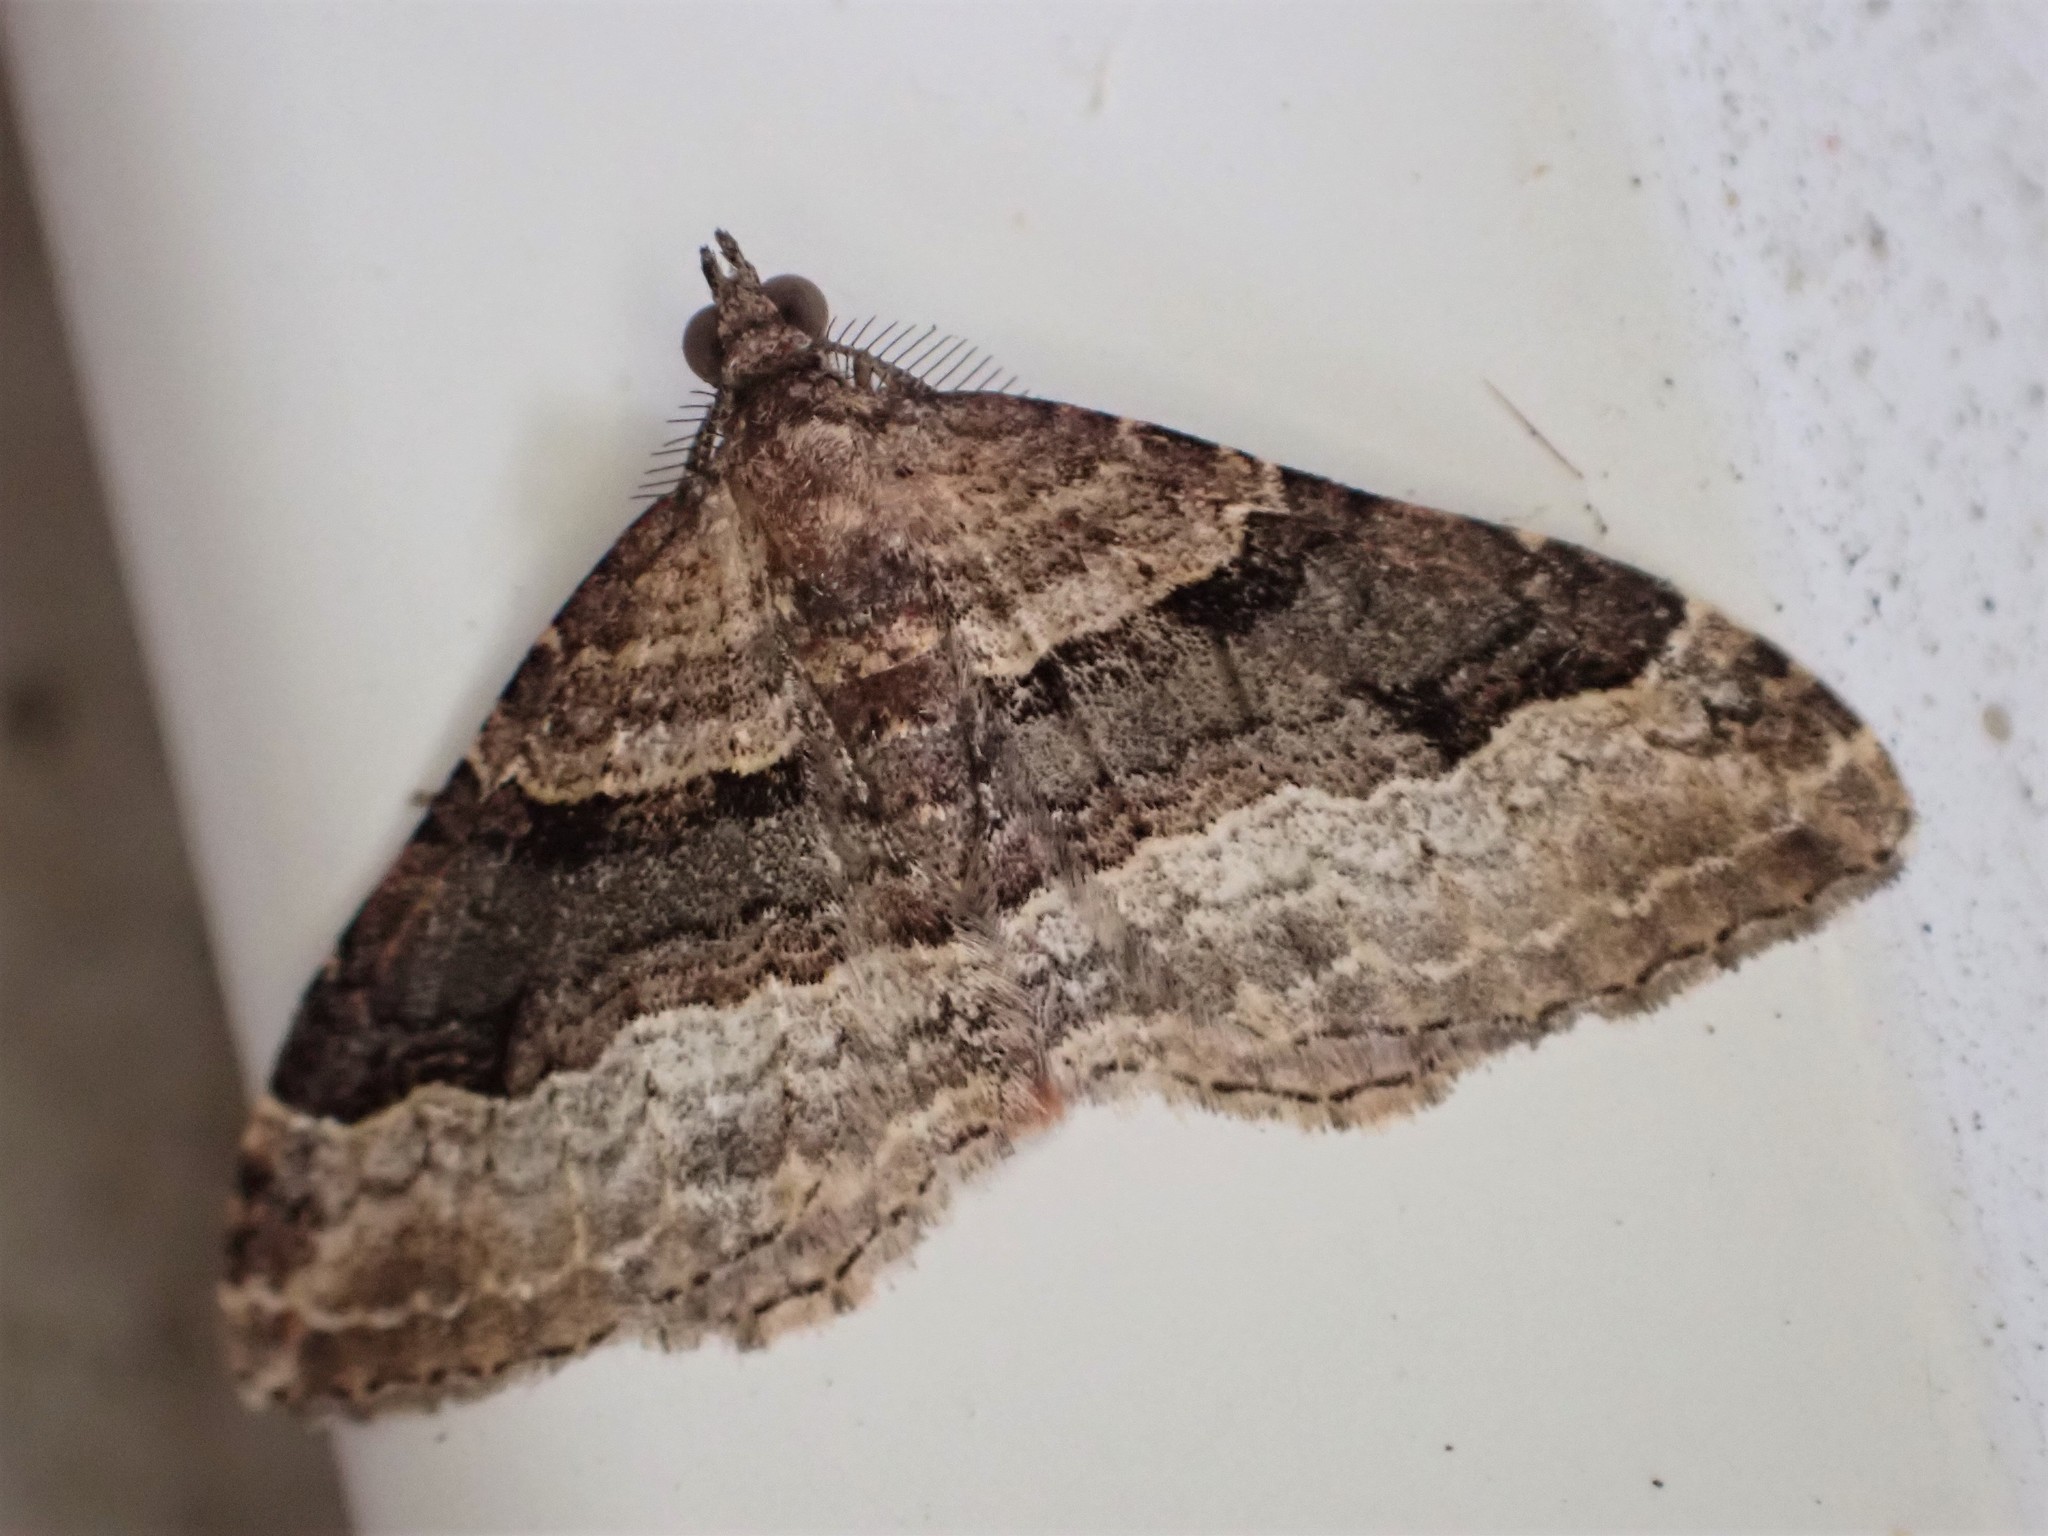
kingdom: Animalia
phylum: Arthropoda
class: Insecta
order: Lepidoptera
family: Geometridae
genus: Epyaxa
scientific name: Epyaxa lucidata
